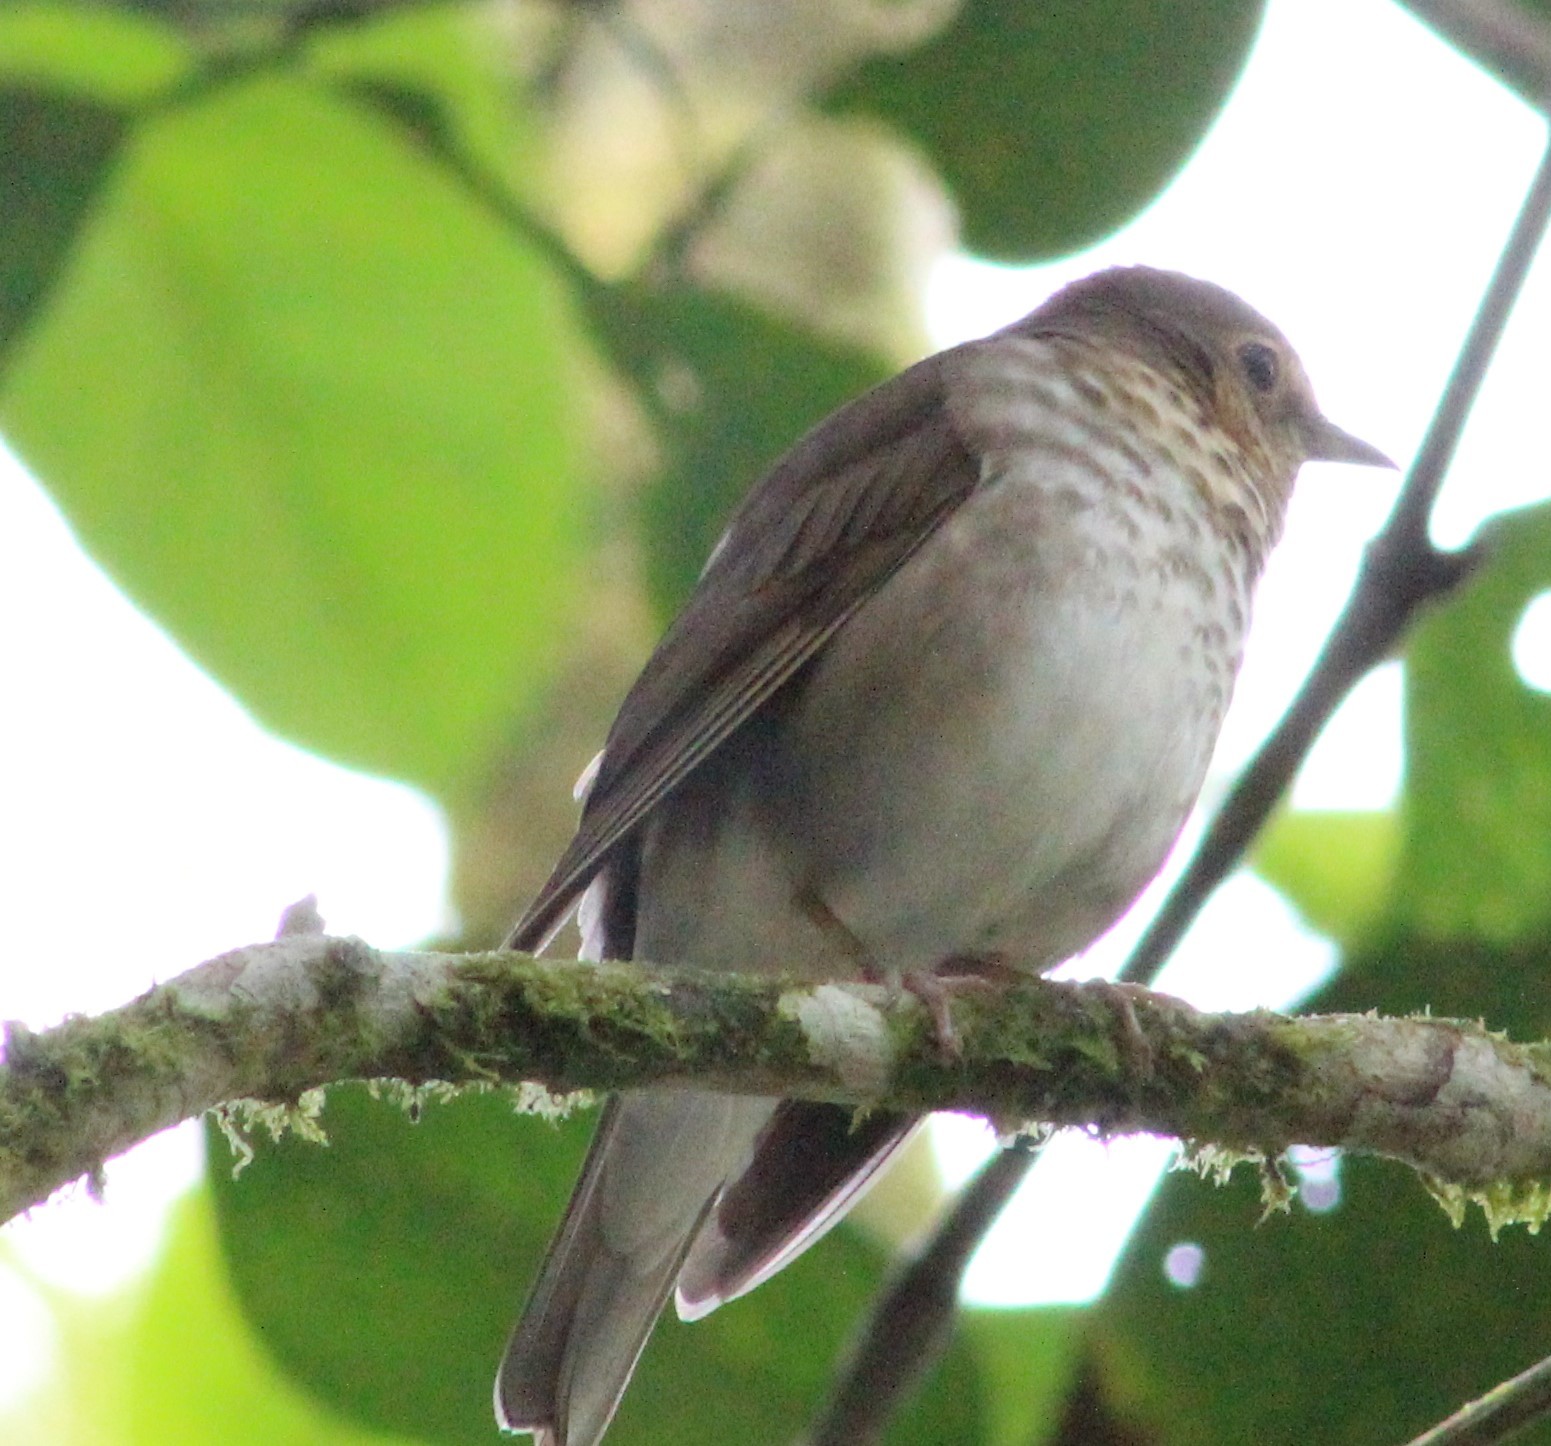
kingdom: Animalia
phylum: Chordata
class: Aves
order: Passeriformes
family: Turdidae
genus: Catharus
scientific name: Catharus ustulatus
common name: Swainson's thrush
